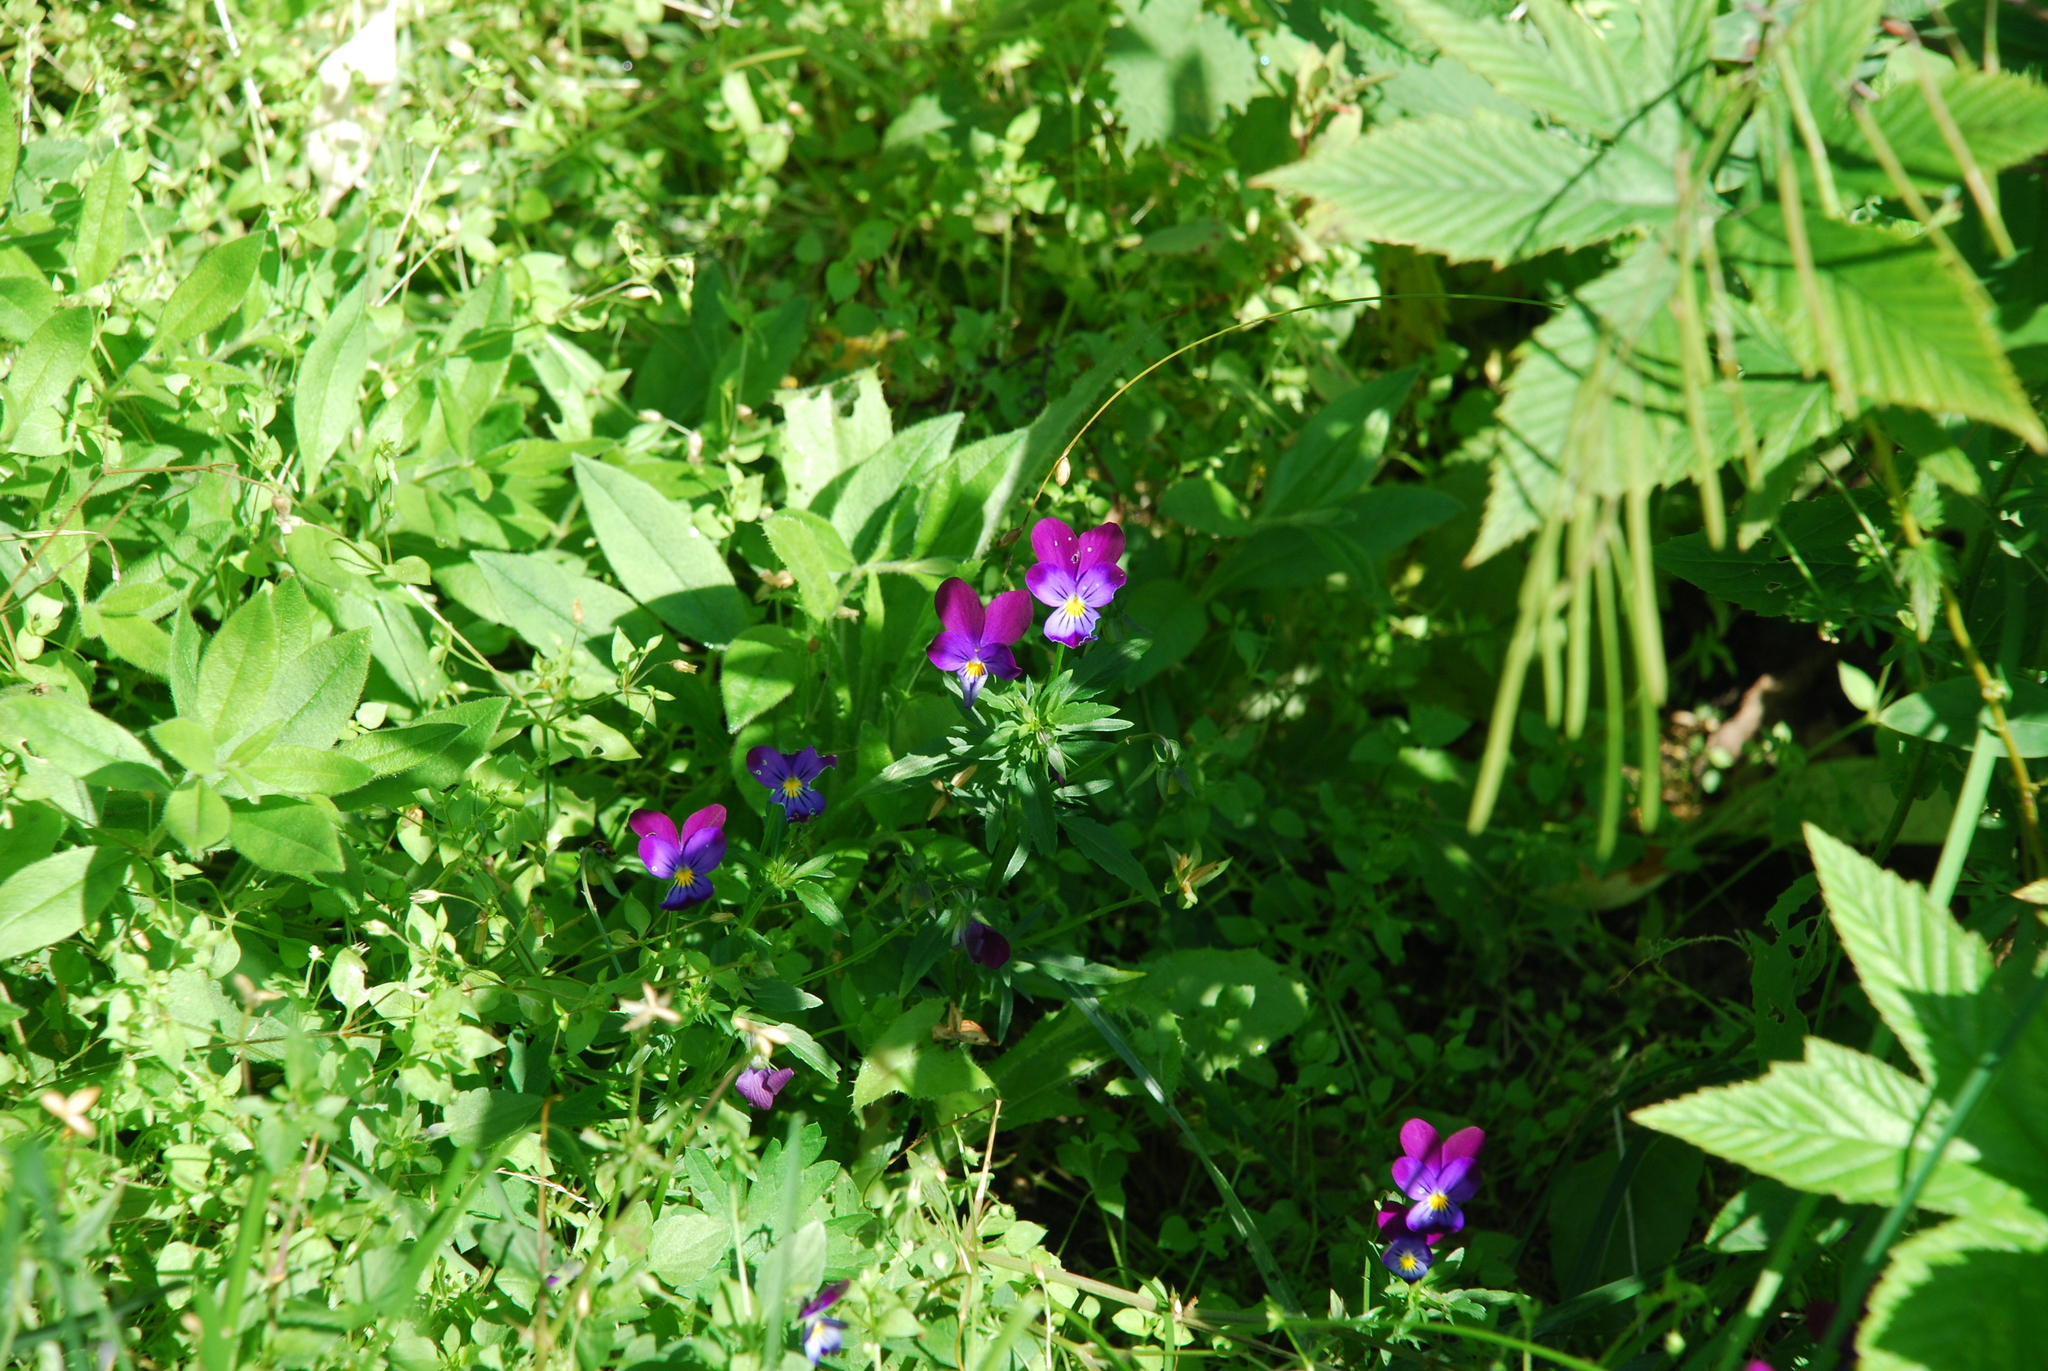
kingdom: Plantae
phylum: Tracheophyta
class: Magnoliopsida
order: Malpighiales
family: Violaceae
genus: Viola
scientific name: Viola wittrockiana
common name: Garden pansy
